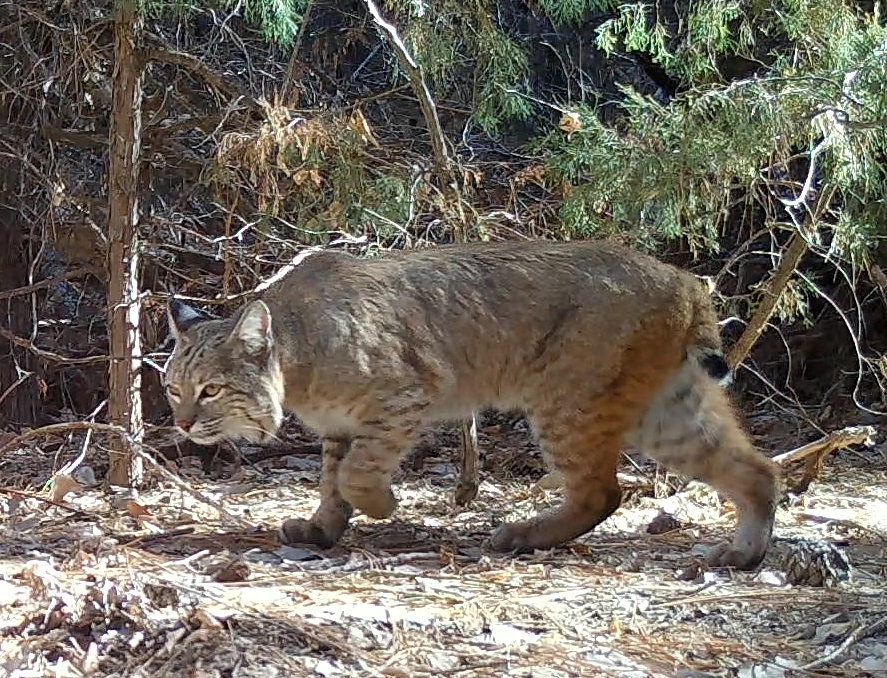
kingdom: Animalia
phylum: Chordata
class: Mammalia
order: Carnivora
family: Felidae
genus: Lynx
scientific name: Lynx rufus
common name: Bobcat
